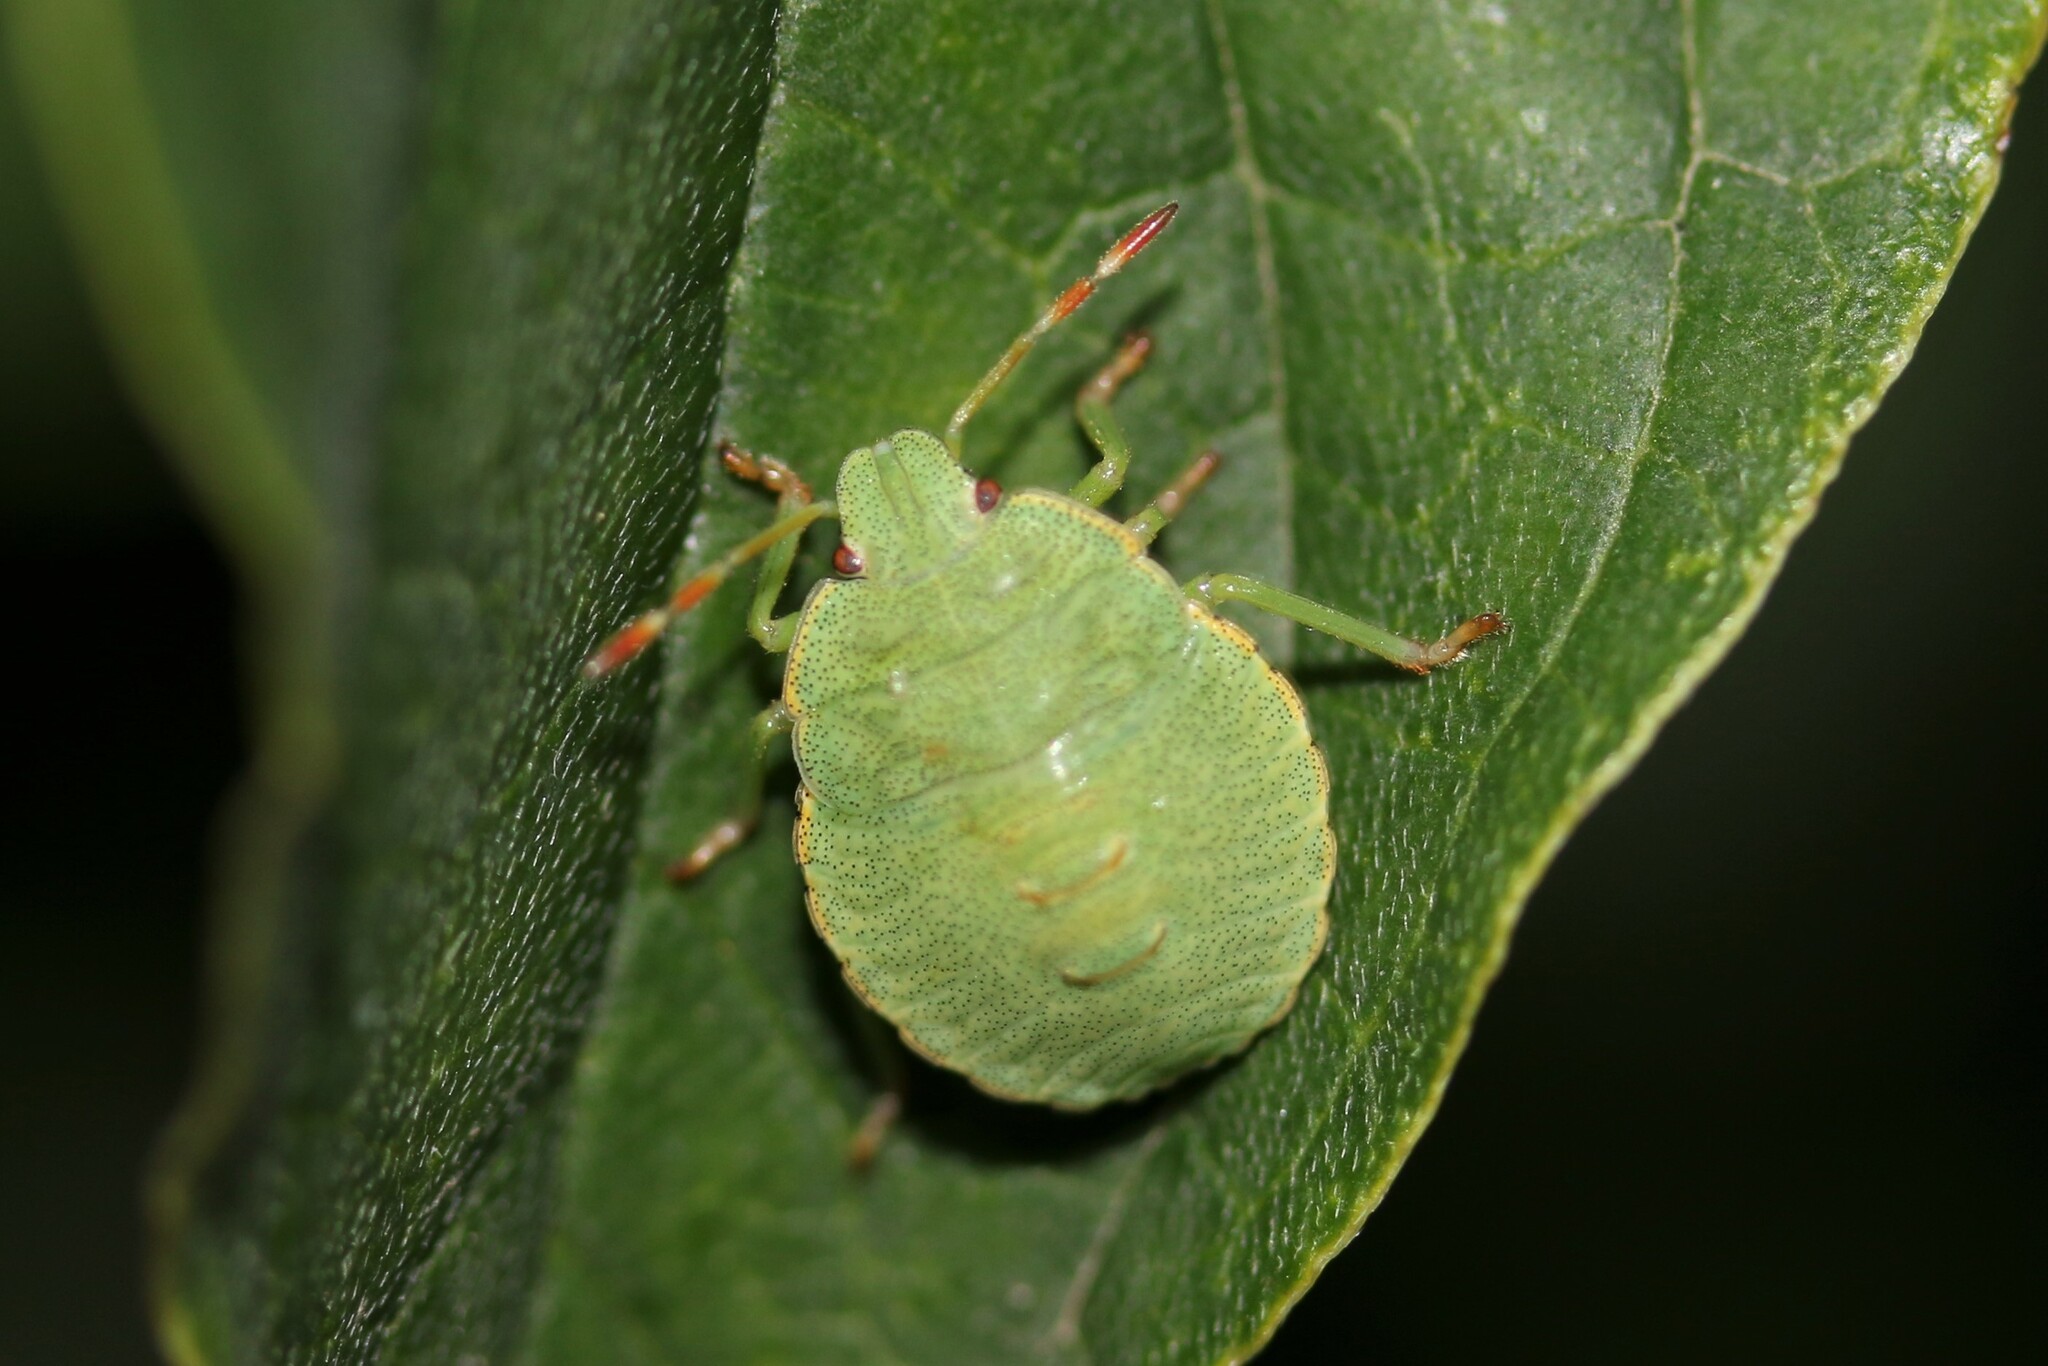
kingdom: Animalia
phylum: Arthropoda
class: Insecta
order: Hemiptera
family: Pentatomidae
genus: Palomena
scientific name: Palomena prasina
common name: Green shieldbug
